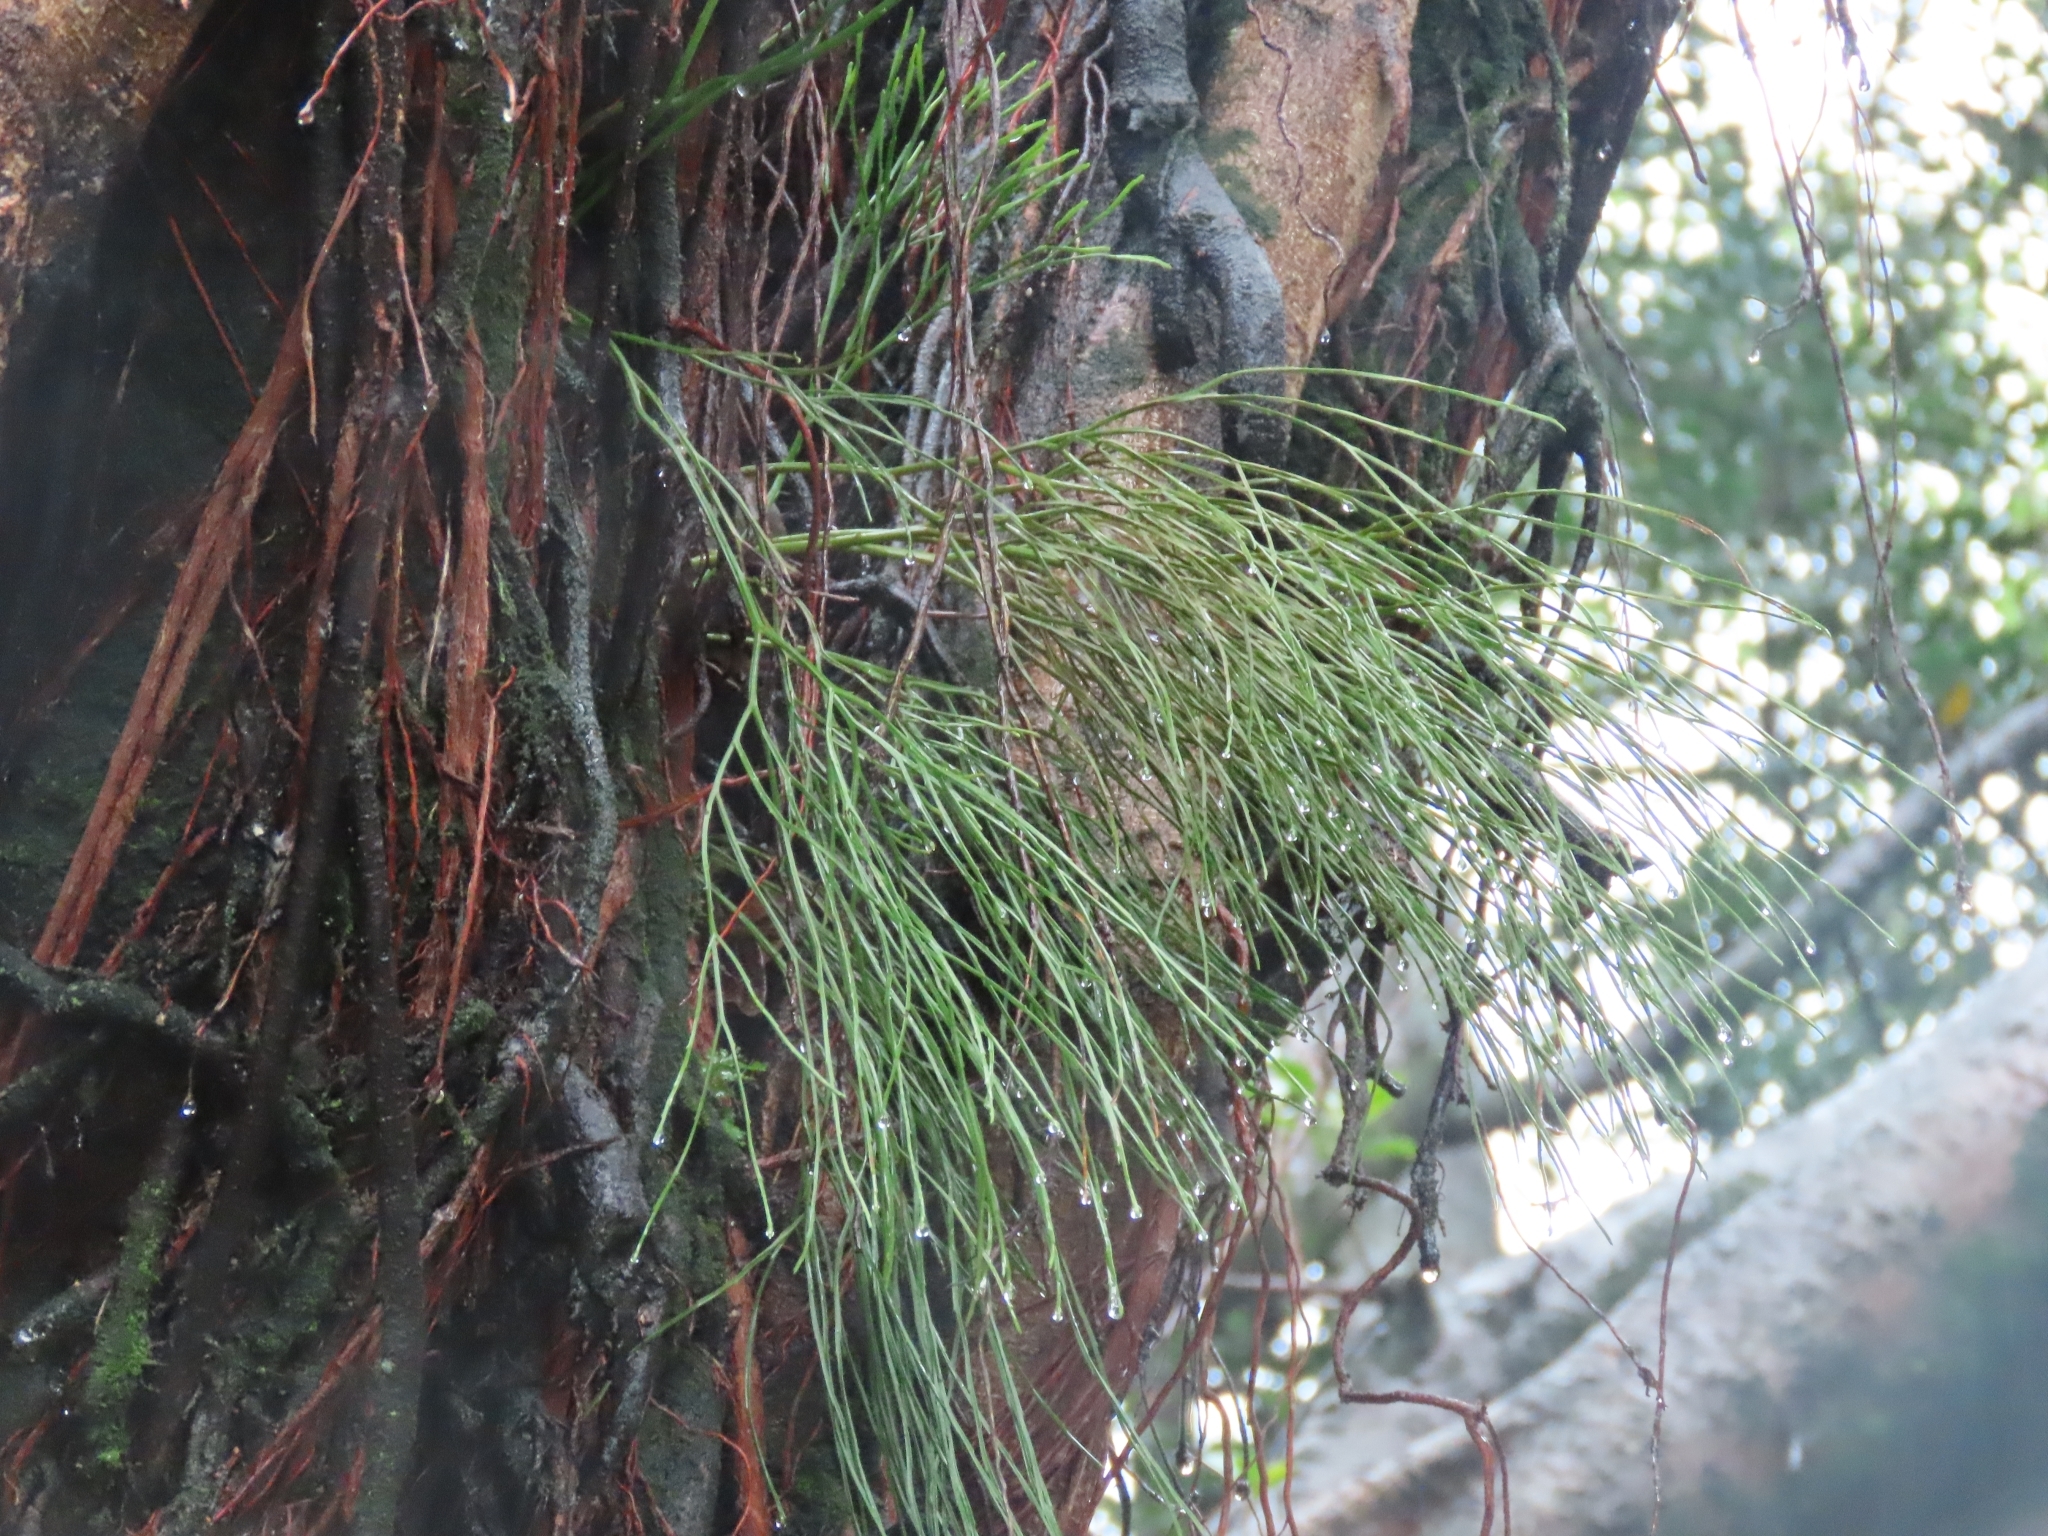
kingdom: Plantae
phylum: Tracheophyta
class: Polypodiopsida
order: Psilotales
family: Psilotaceae
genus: Psilotum
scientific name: Psilotum nudum
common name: Skeleton fork fern
